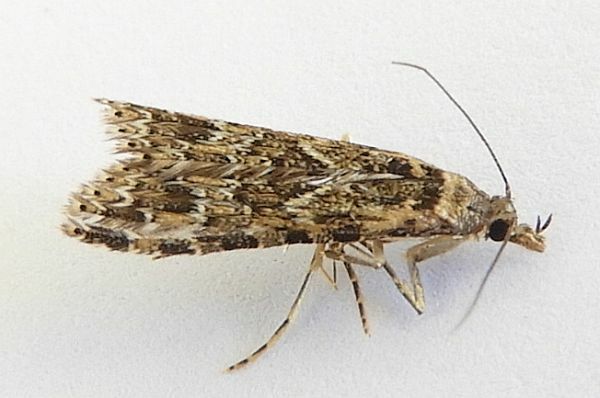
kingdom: Animalia
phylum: Arthropoda
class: Insecta
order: Lepidoptera
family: Alucitidae
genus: Alucita
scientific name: Alucita montana
